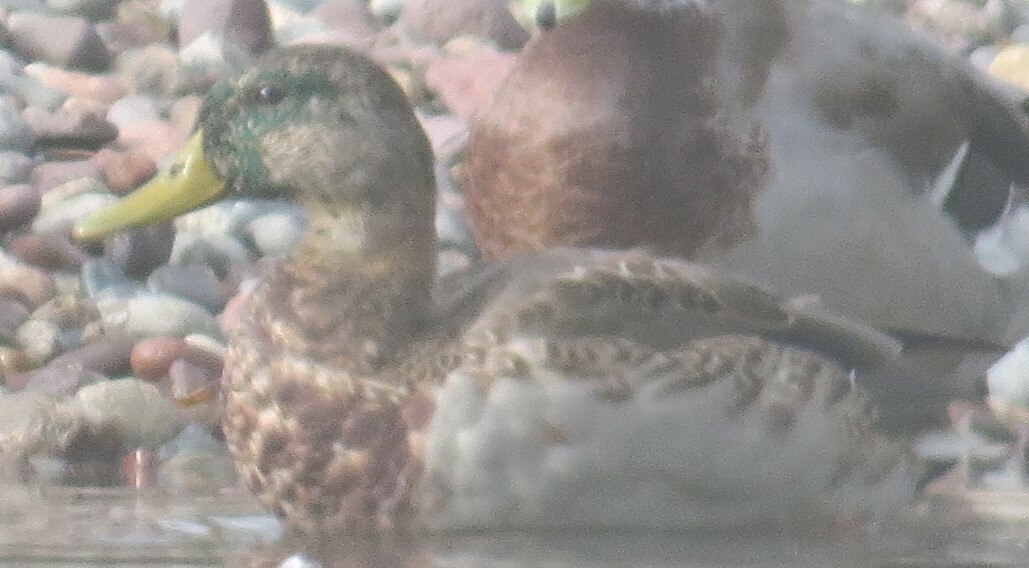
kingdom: Animalia
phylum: Chordata
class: Aves
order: Anseriformes
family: Anatidae
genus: Anas
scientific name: Anas platyrhynchos
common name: Mallard
